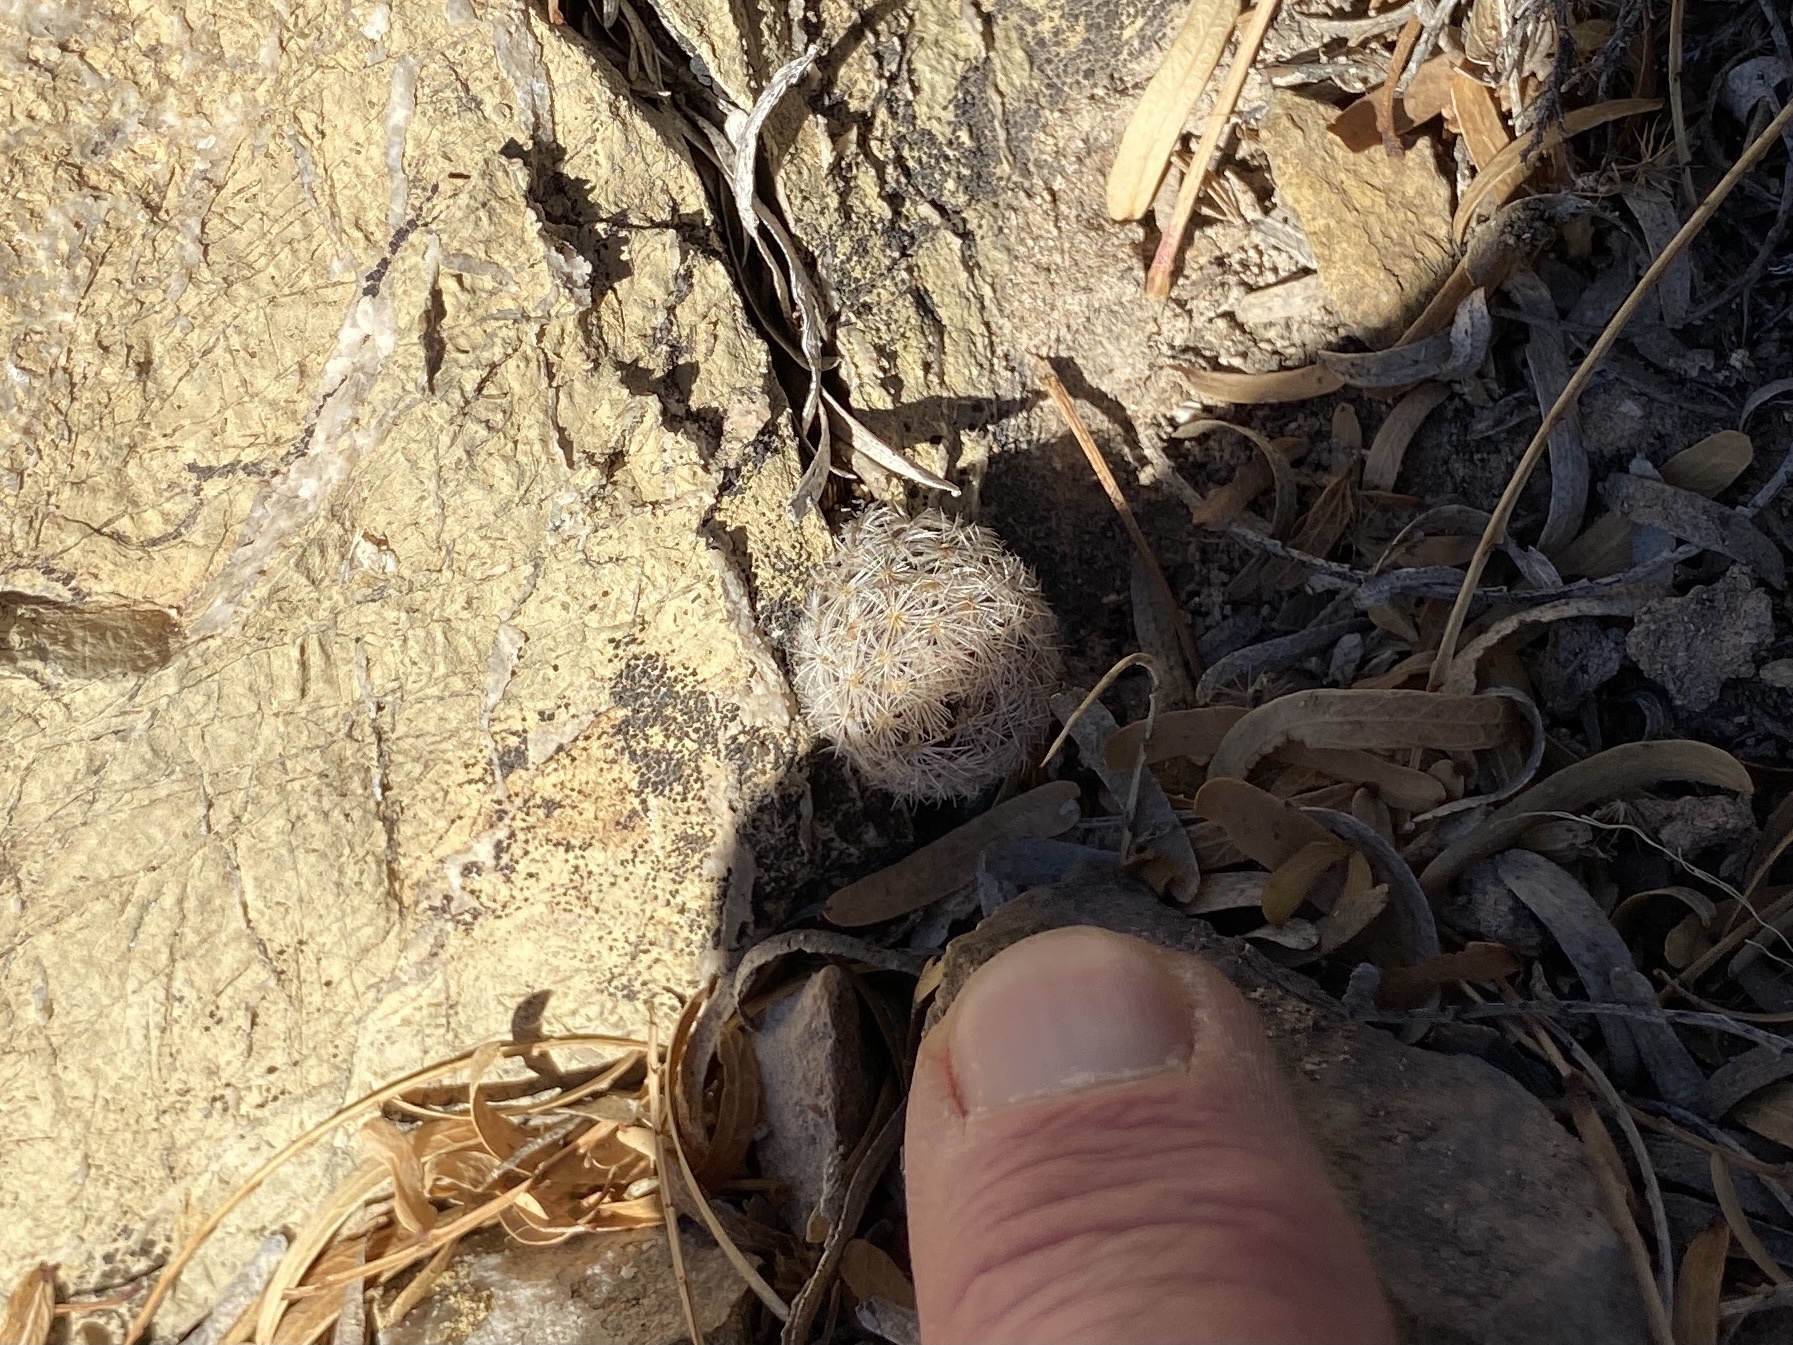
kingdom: Plantae
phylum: Tracheophyta
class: Magnoliopsida
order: Caryophyllales
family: Cactaceae
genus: Mammillaria
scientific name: Mammillaria lasiacantha
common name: Lace-spine nipple cactus
